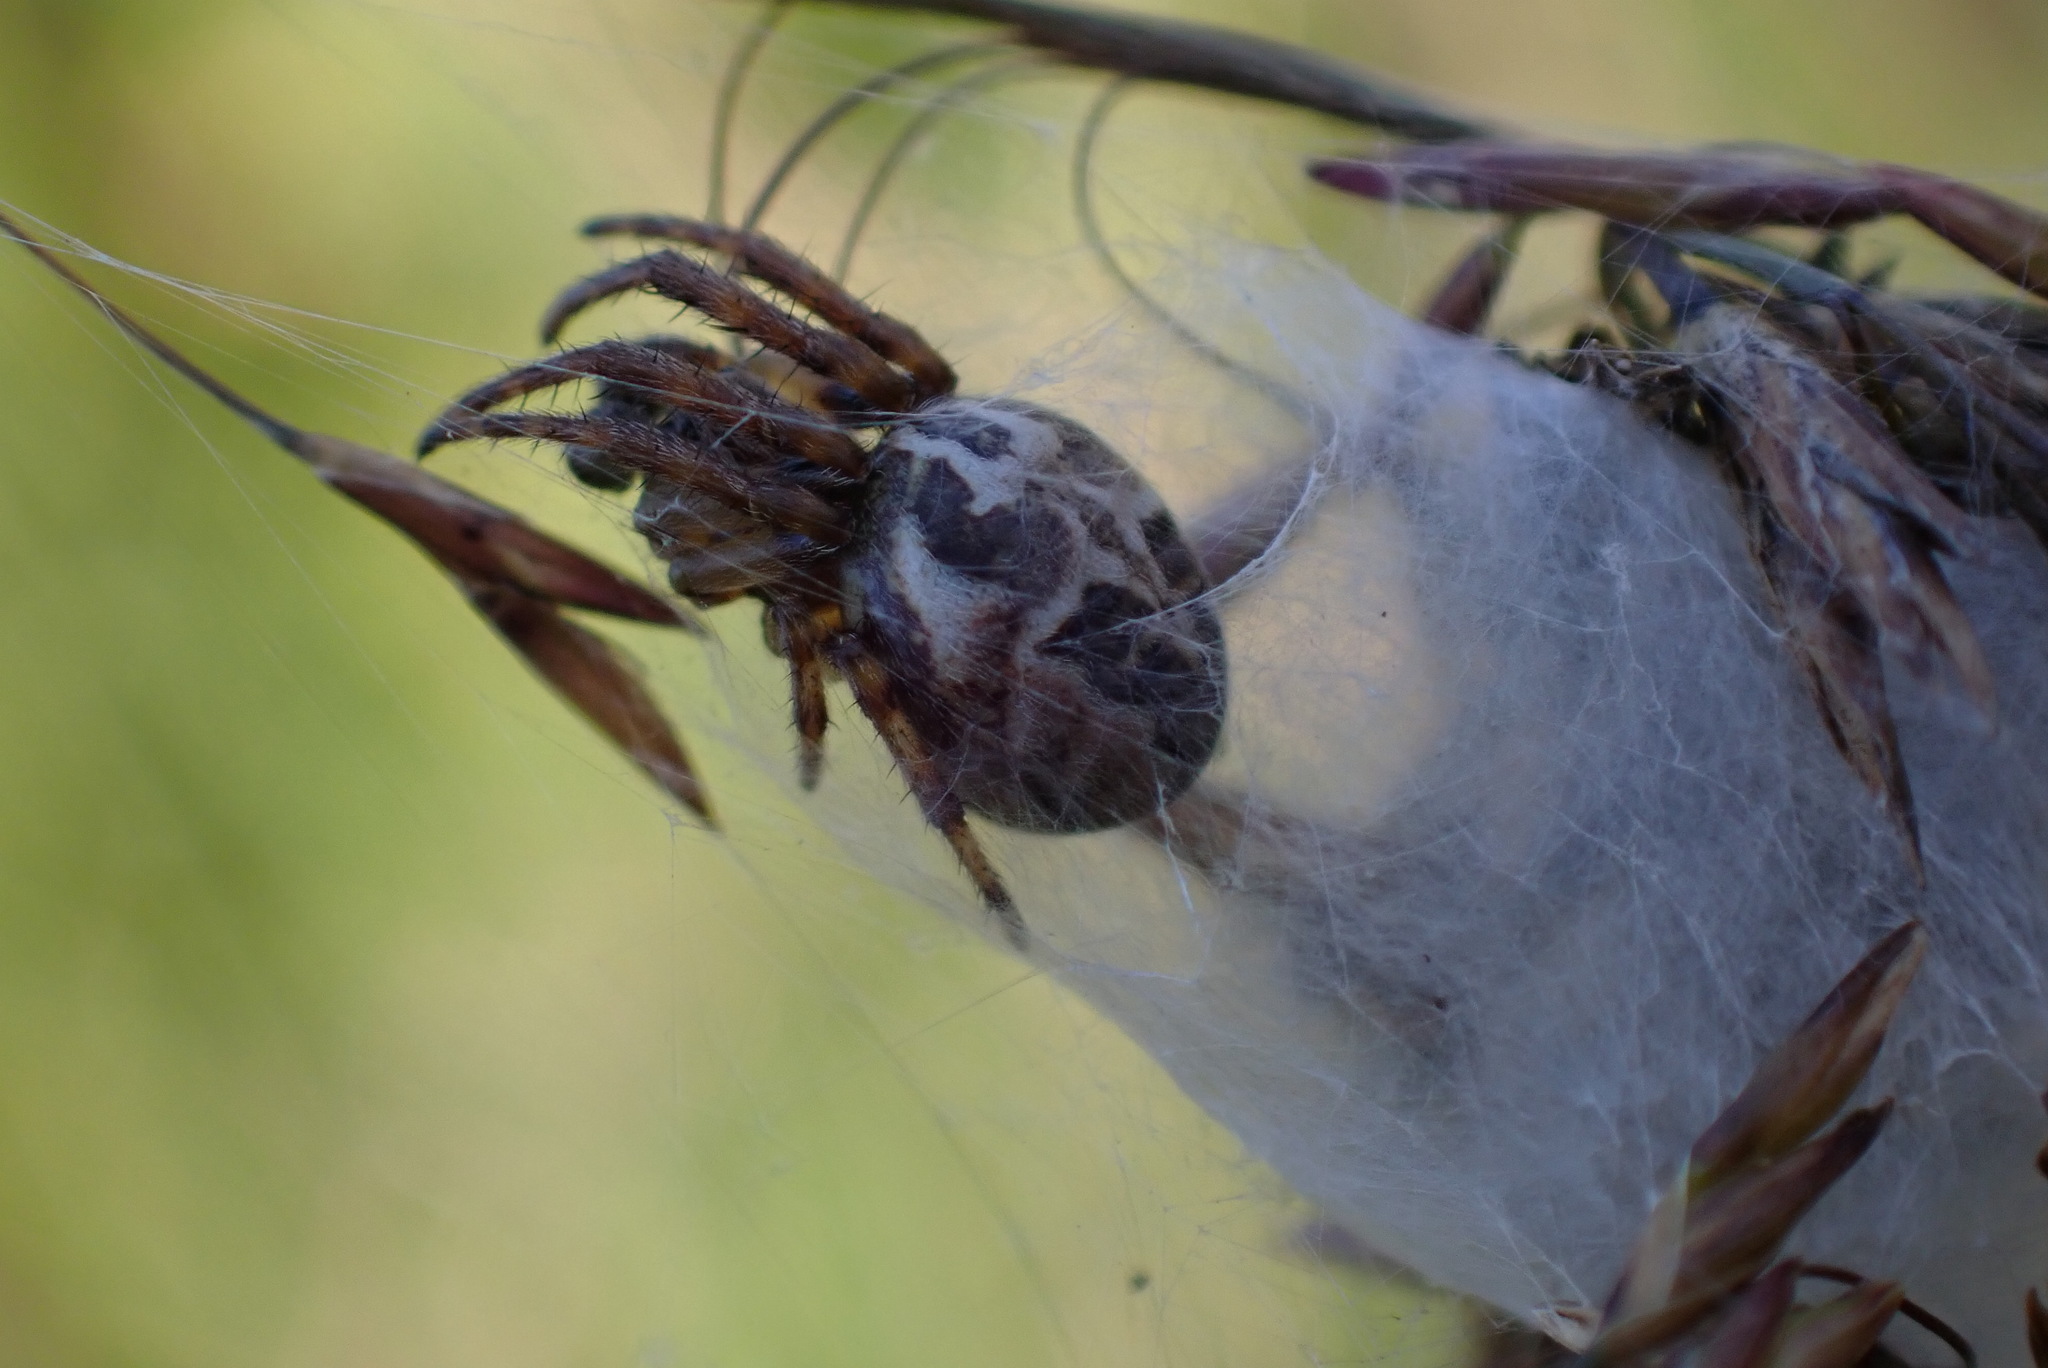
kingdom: Animalia
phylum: Arthropoda
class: Arachnida
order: Araneae
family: Araneidae
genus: Larinioides
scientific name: Larinioides cornutus
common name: Furrow orbweaver
